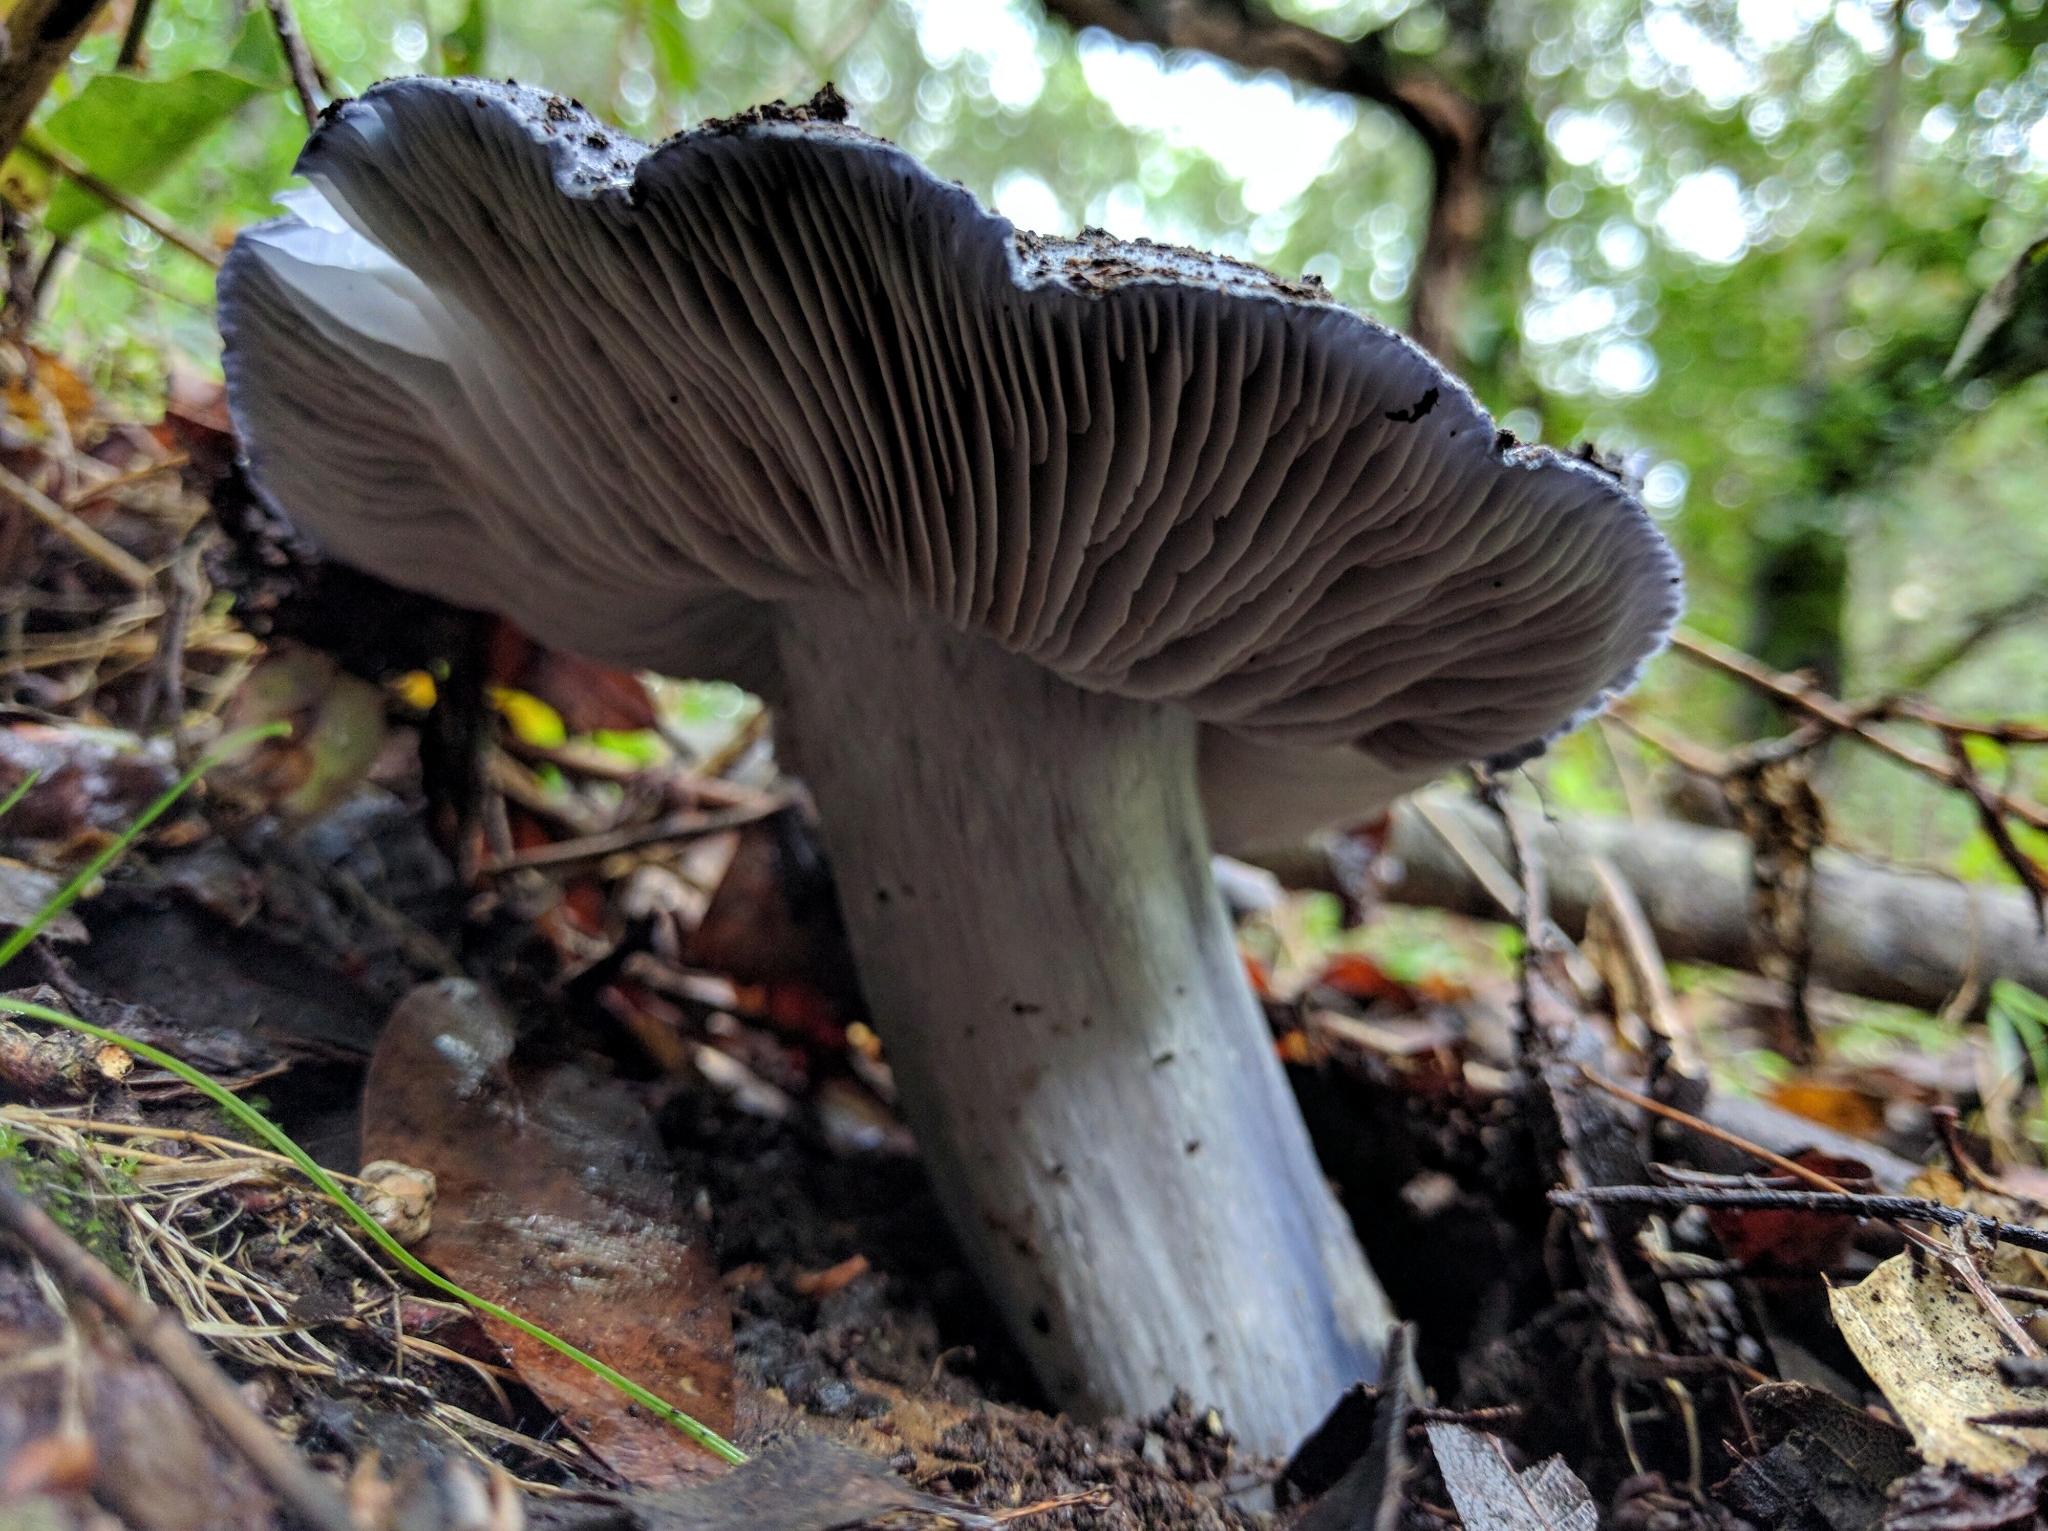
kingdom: Fungi
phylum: Basidiomycota
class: Agaricomycetes
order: Agaricales
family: Entolomataceae
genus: Entoloma
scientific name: Entoloma medianox
